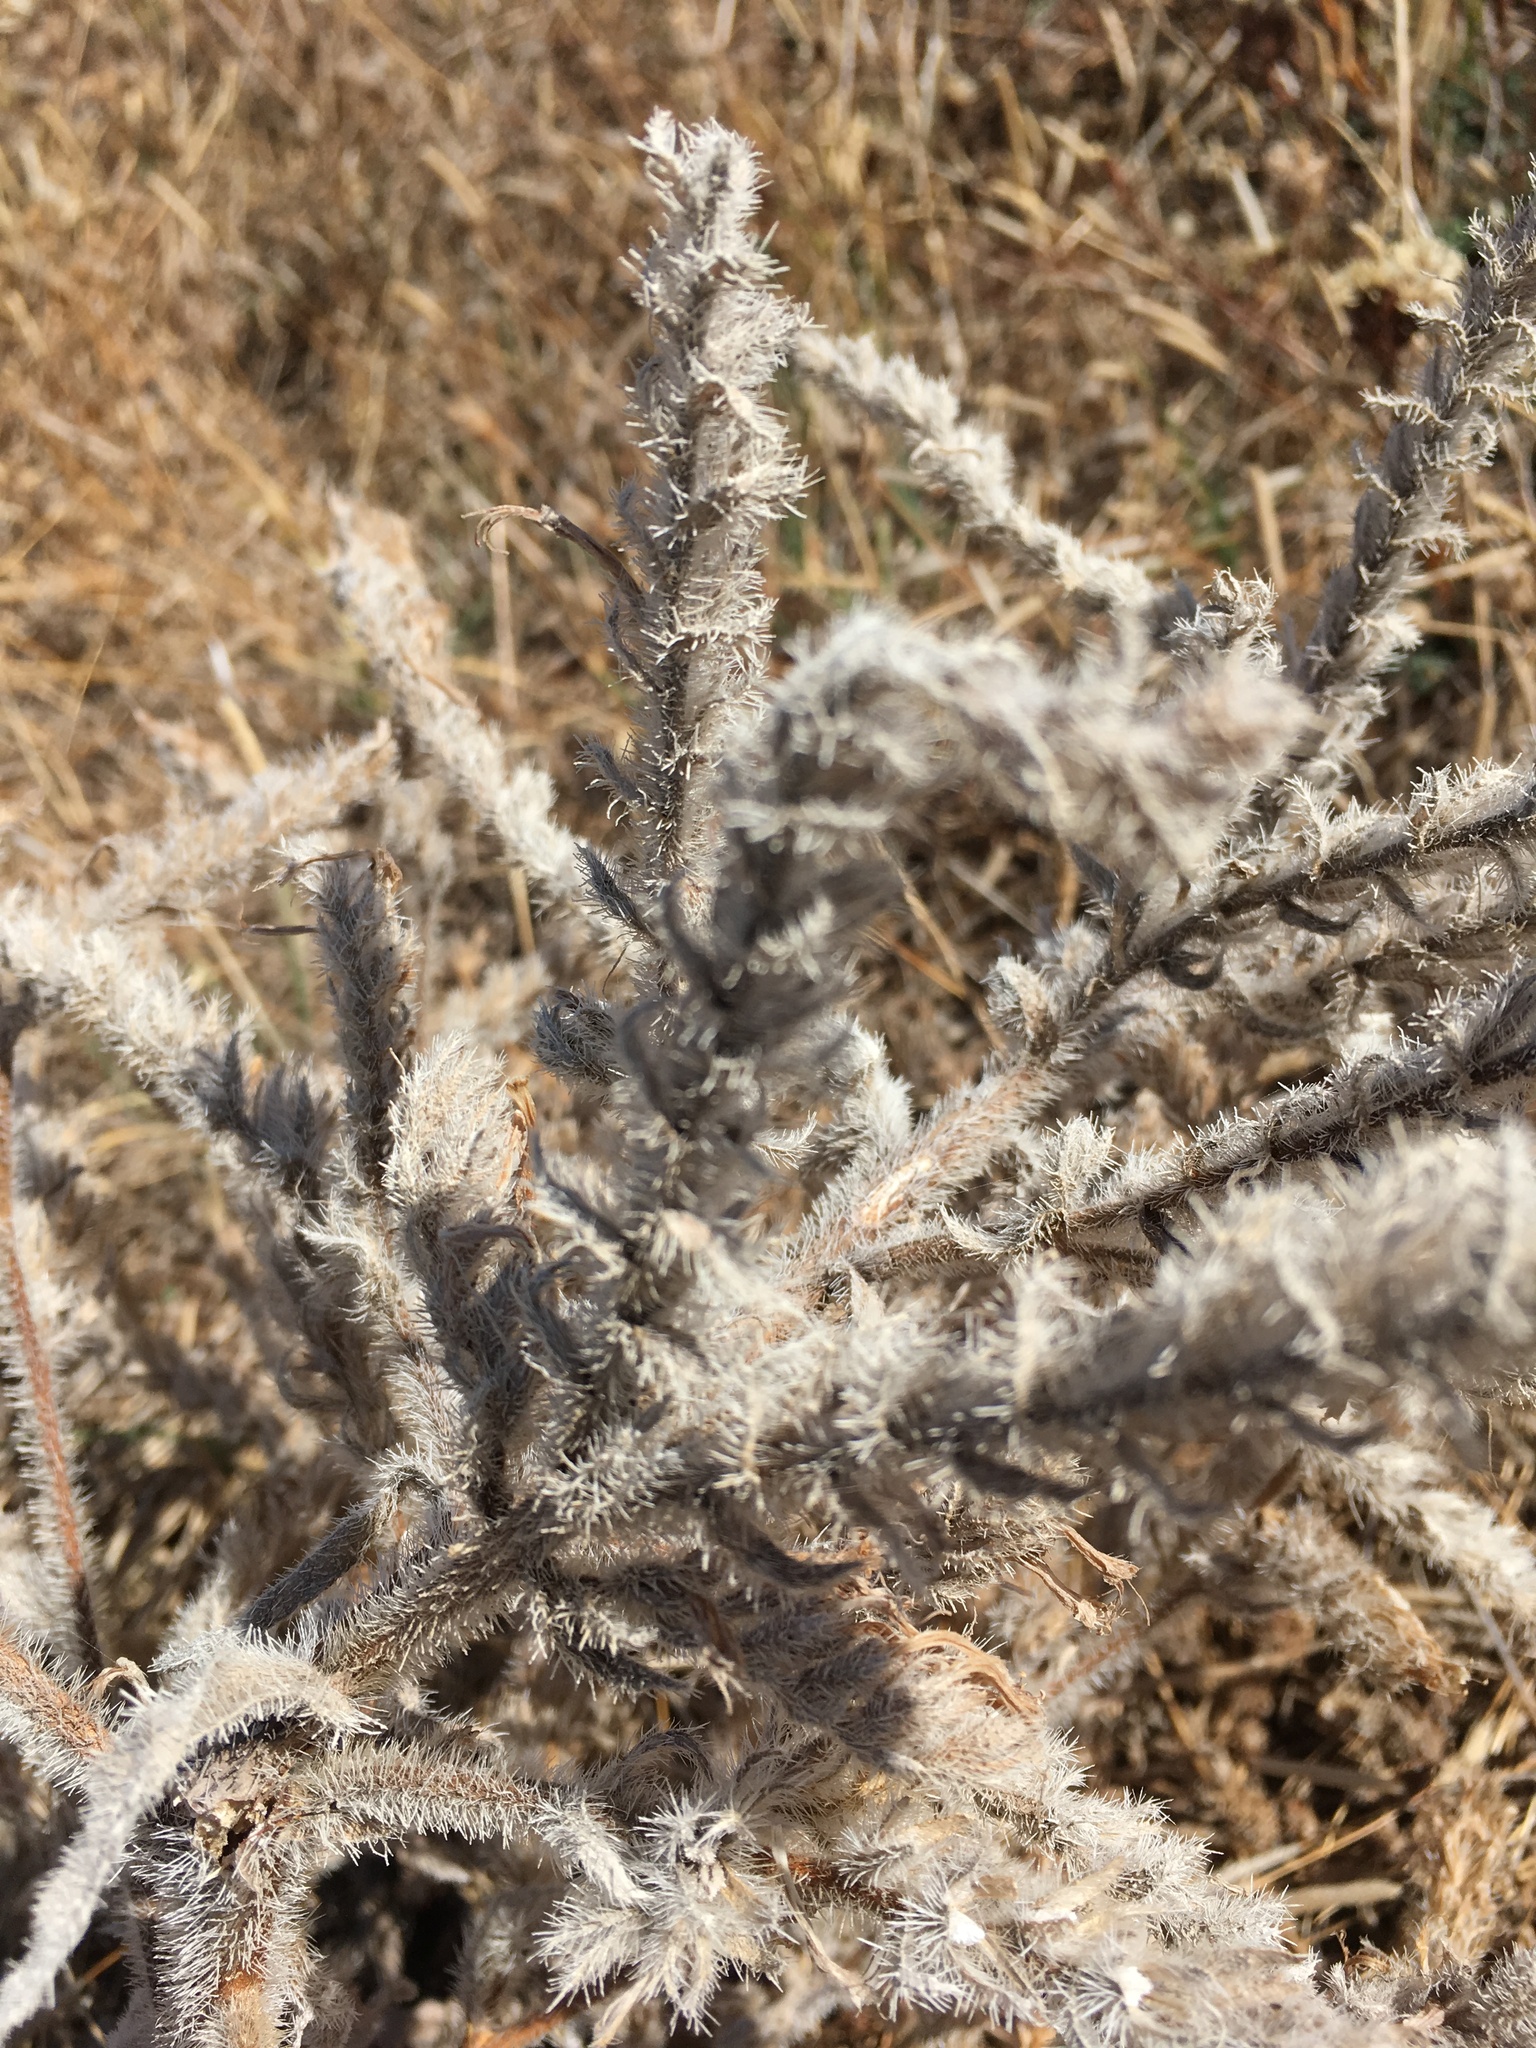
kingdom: Plantae
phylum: Tracheophyta
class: Magnoliopsida
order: Boraginales
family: Boraginaceae
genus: Echium
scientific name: Echium italicum
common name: Italian viper's bugloss
